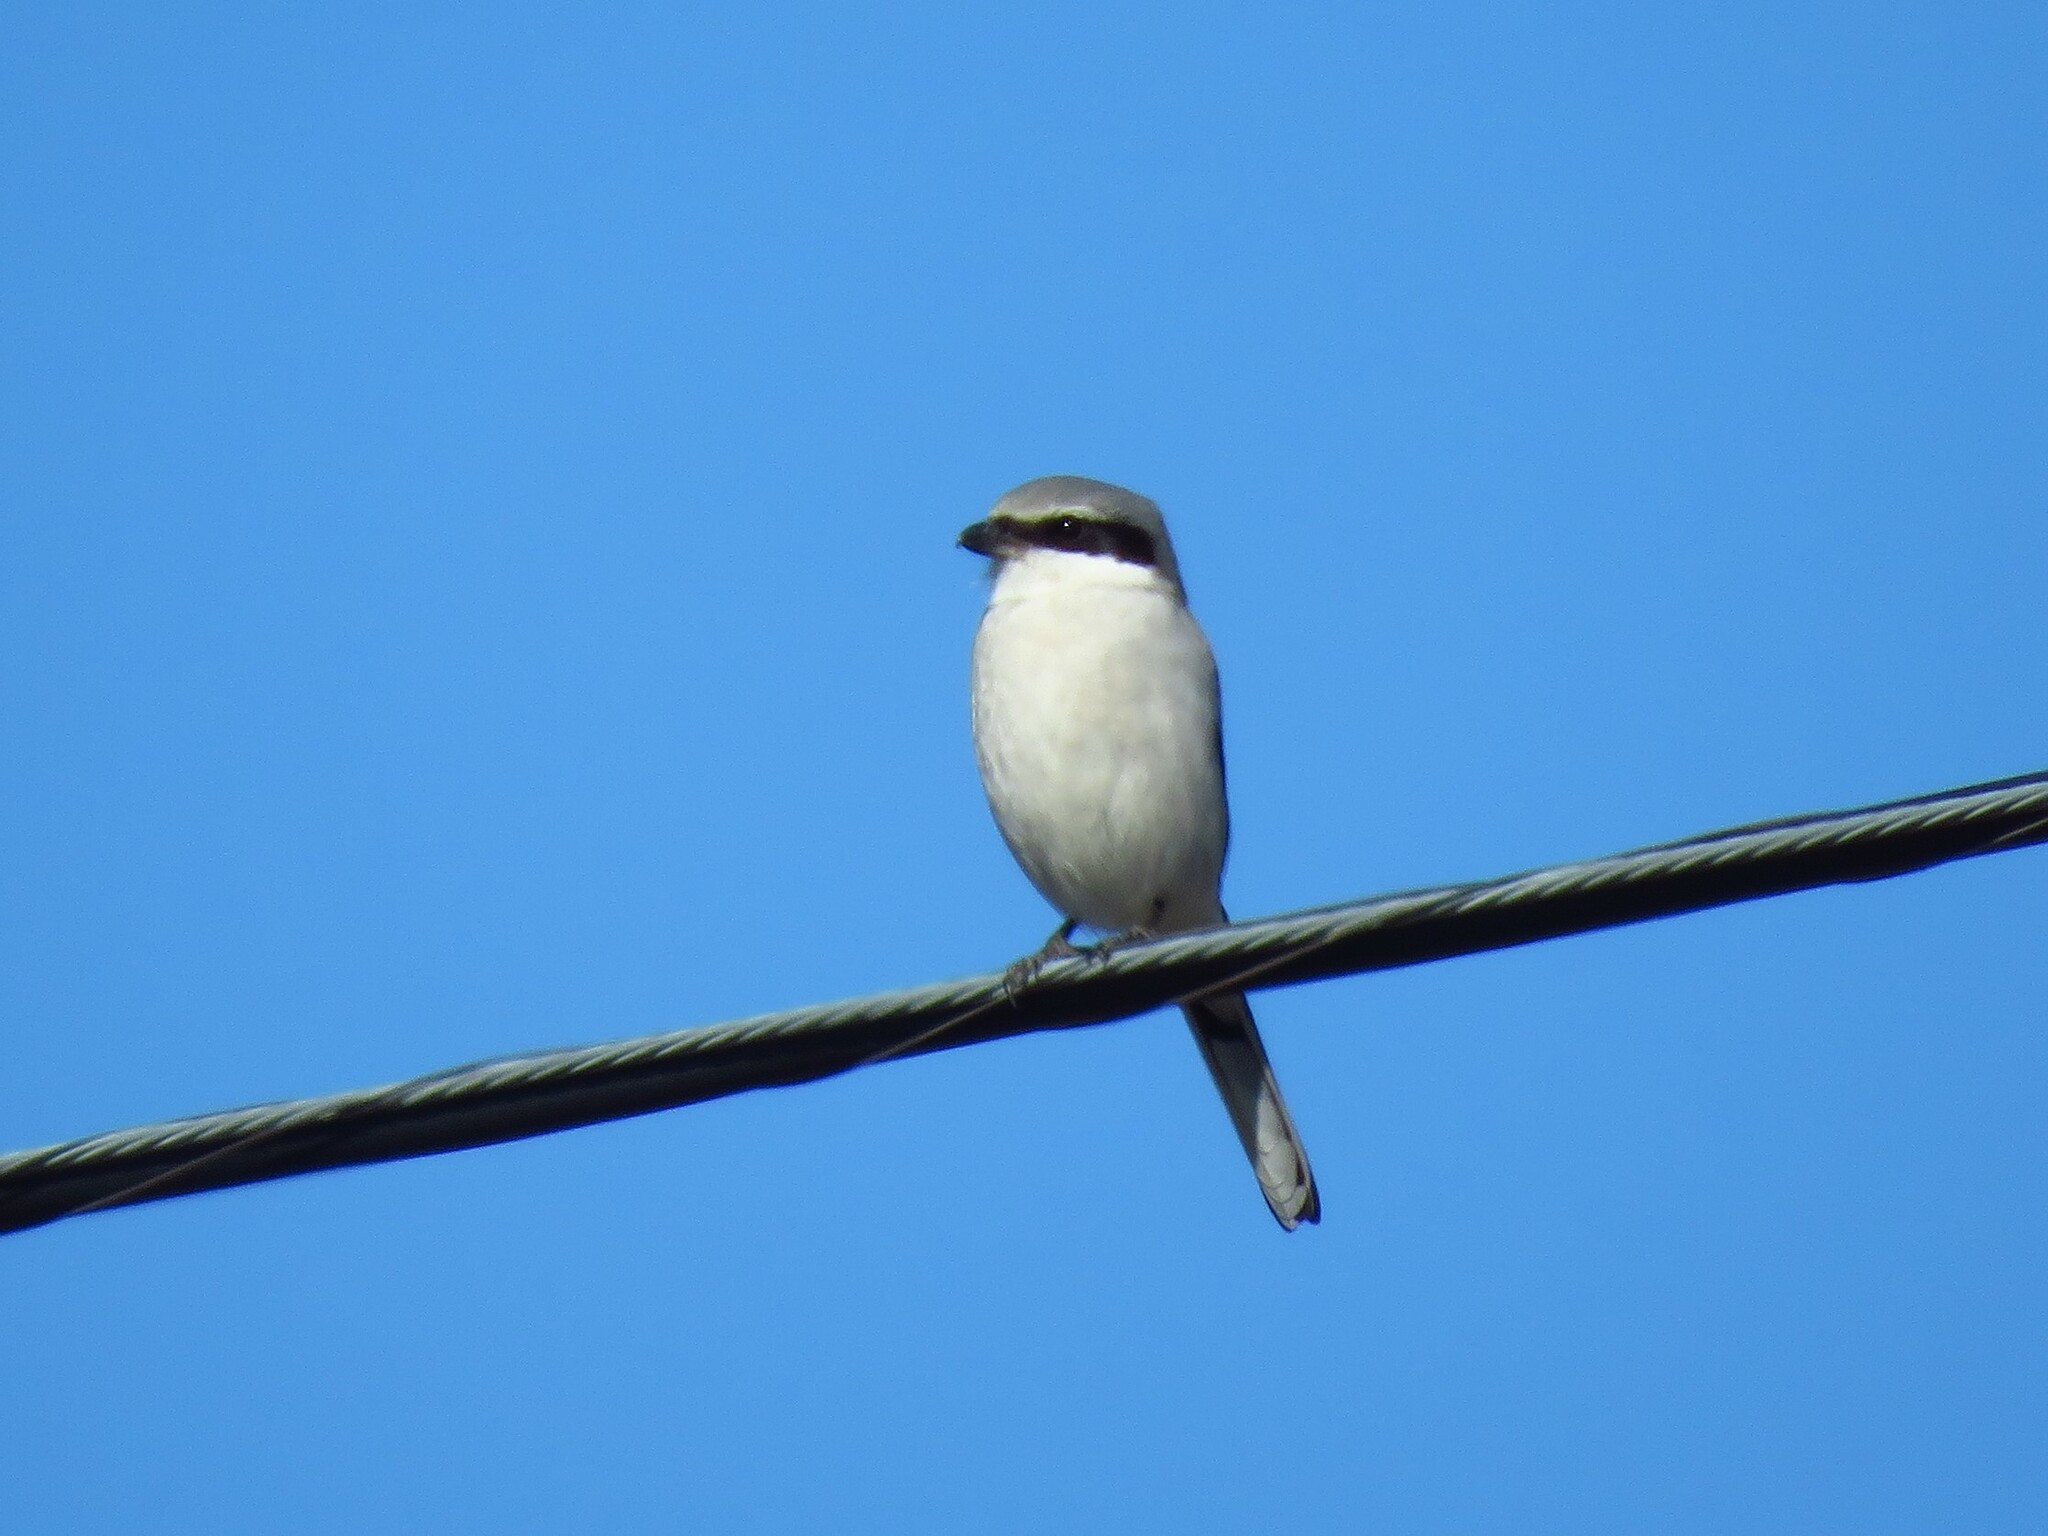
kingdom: Animalia
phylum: Chordata
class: Aves
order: Passeriformes
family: Laniidae
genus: Lanius
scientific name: Lanius ludovicianus
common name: Loggerhead shrike
